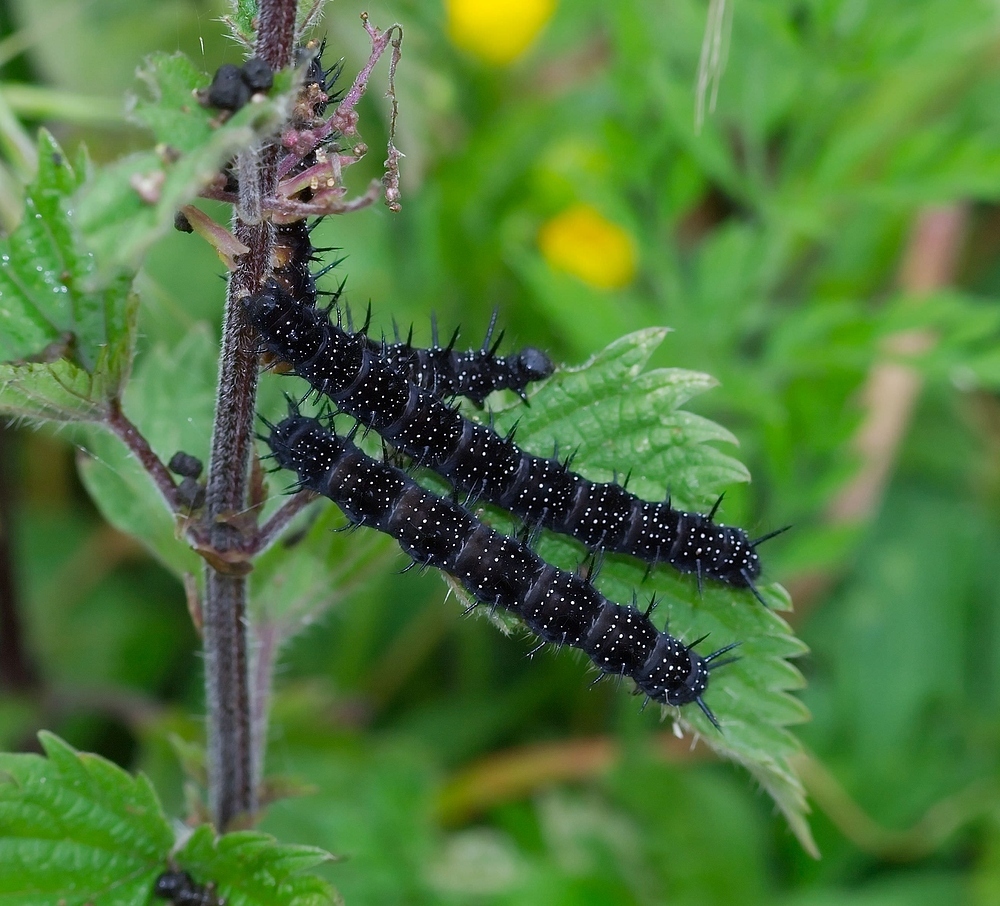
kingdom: Animalia
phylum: Arthropoda
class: Insecta
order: Lepidoptera
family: Nymphalidae
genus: Aglais
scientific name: Aglais io
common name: Peacock
